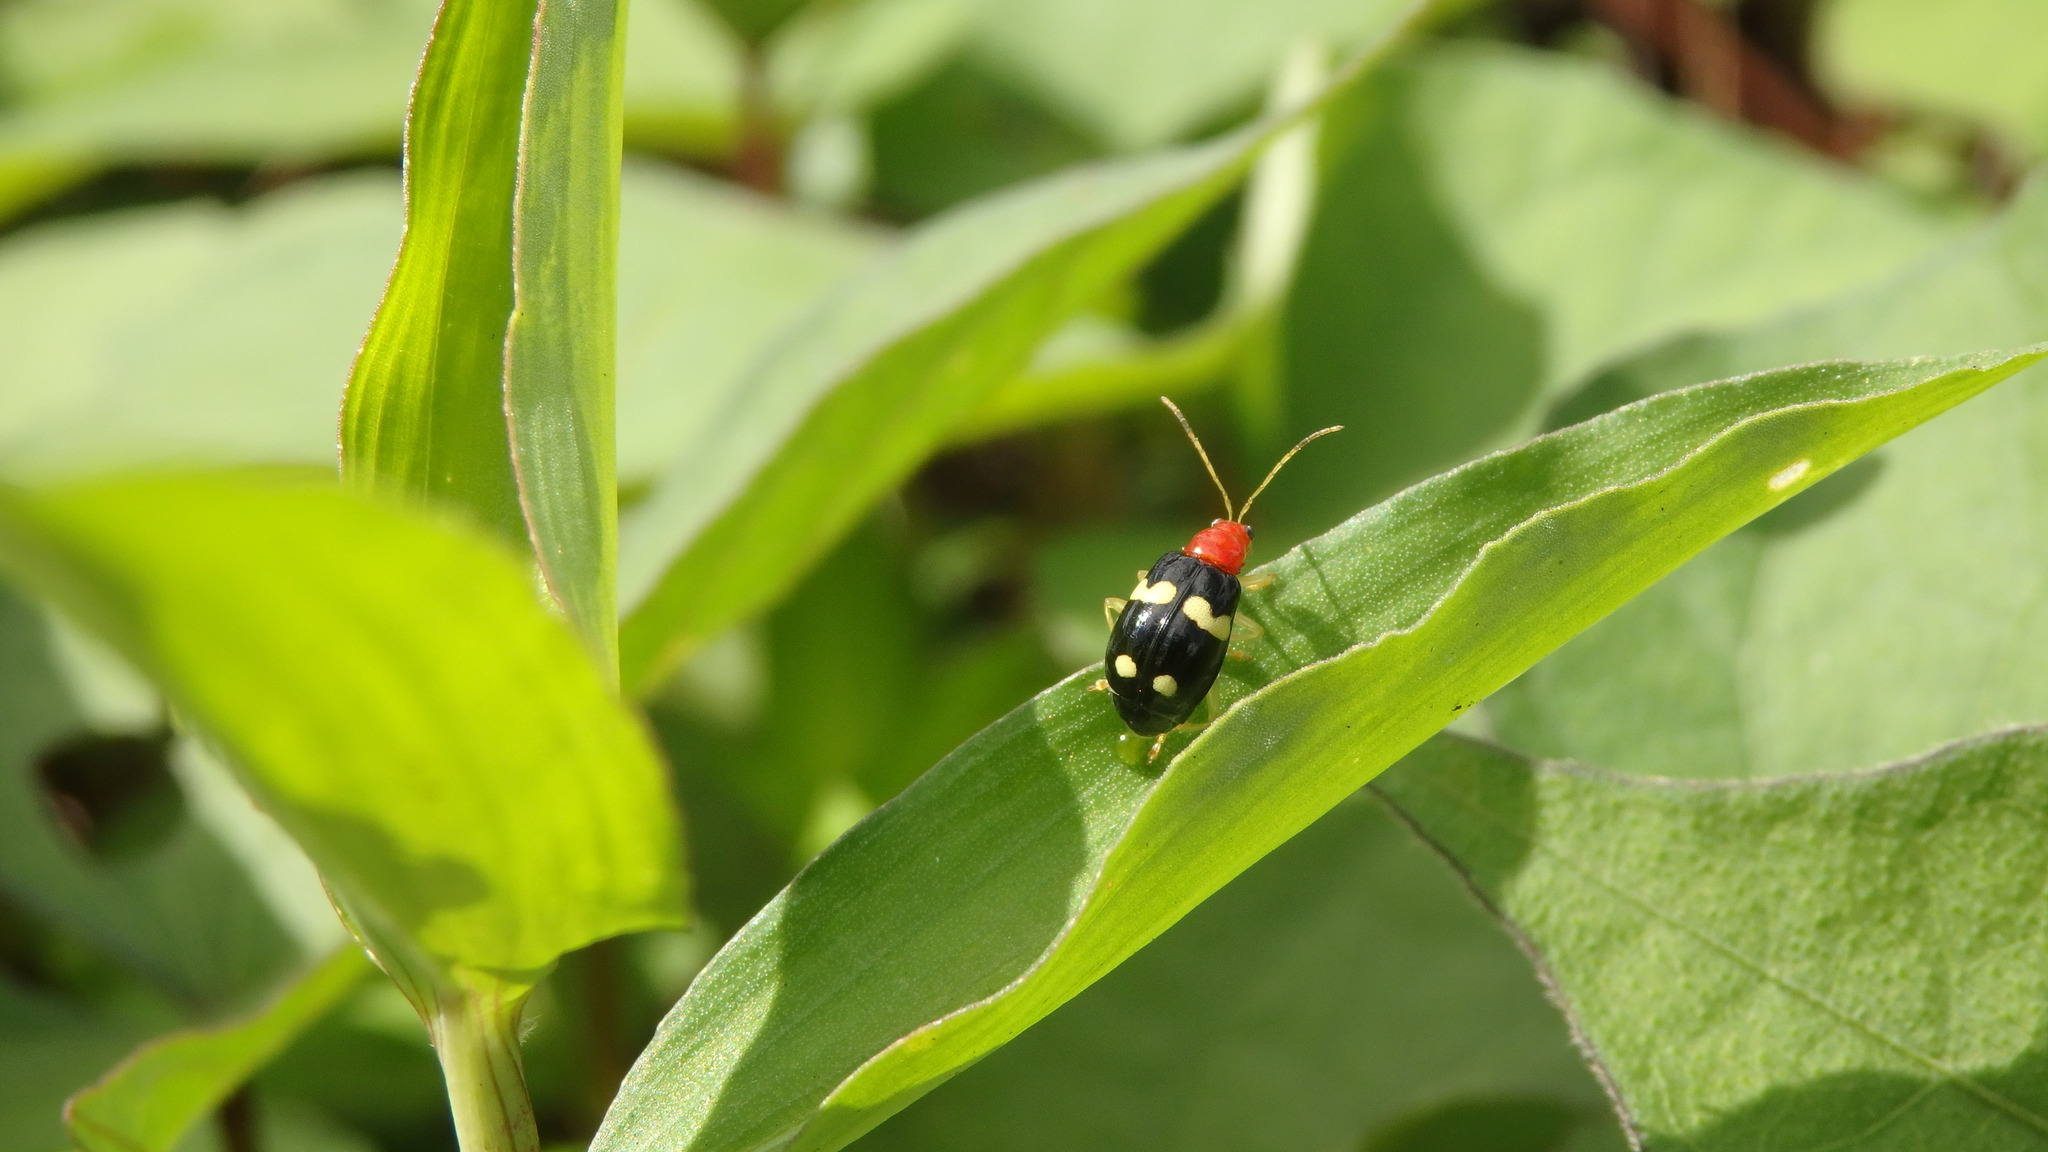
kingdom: Animalia
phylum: Arthropoda
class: Insecta
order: Coleoptera
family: Chrysomelidae
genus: Gynandrobrotica
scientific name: Gynandrobrotica
